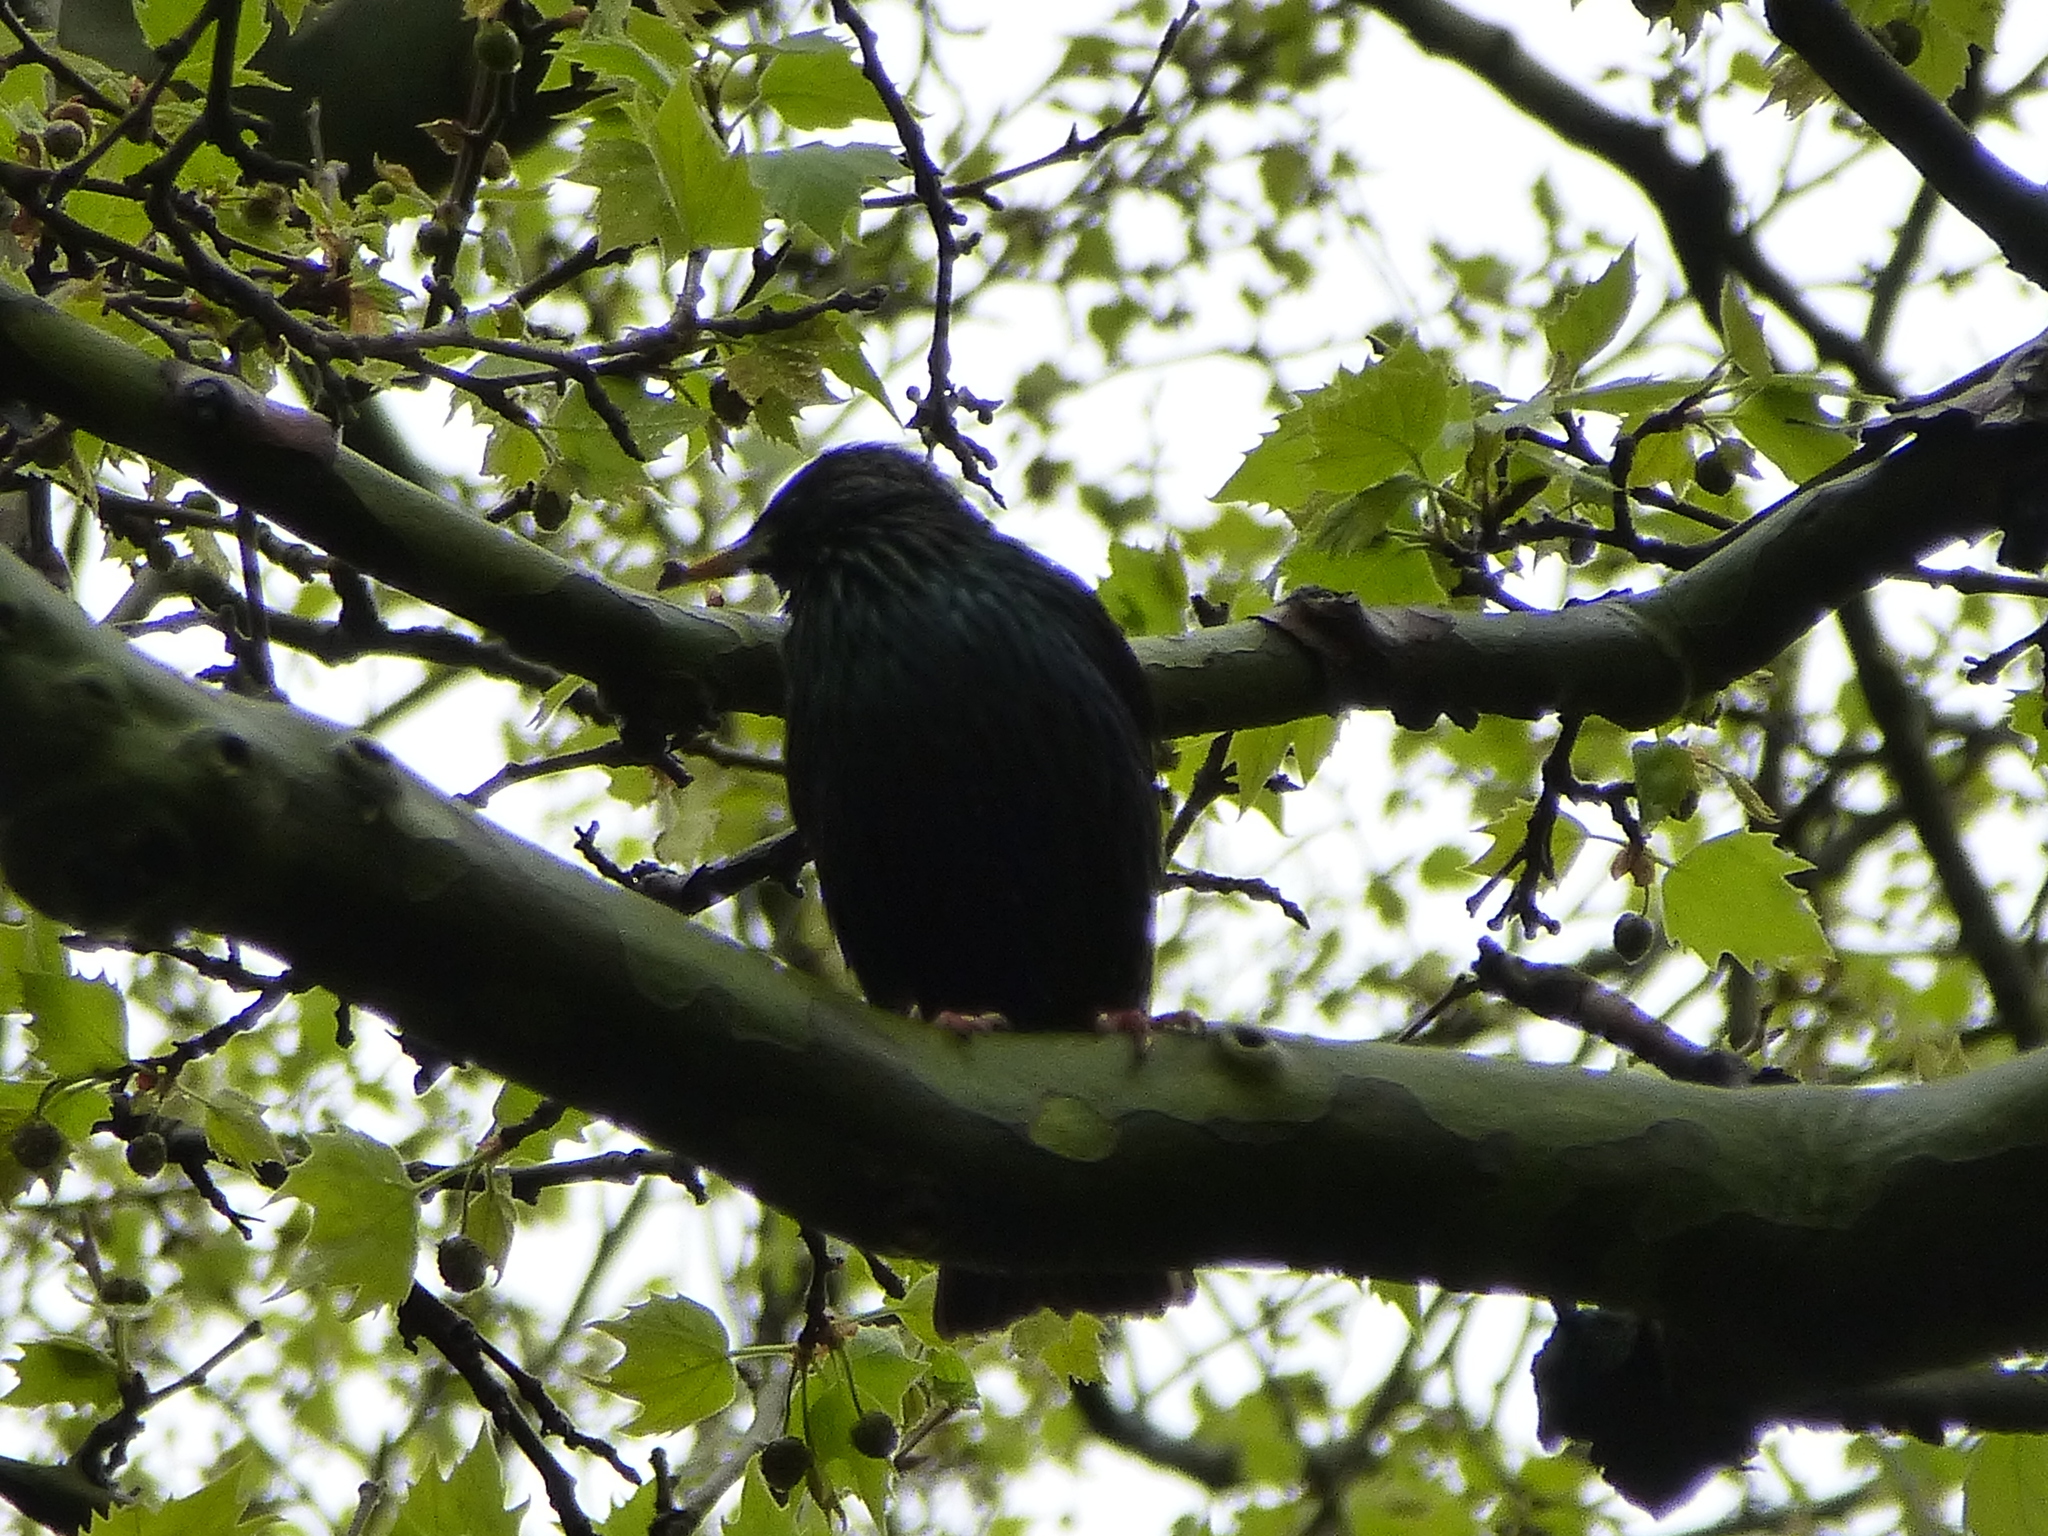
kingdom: Animalia
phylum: Chordata
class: Aves
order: Passeriformes
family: Sturnidae
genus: Sturnus
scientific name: Sturnus vulgaris
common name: Common starling
